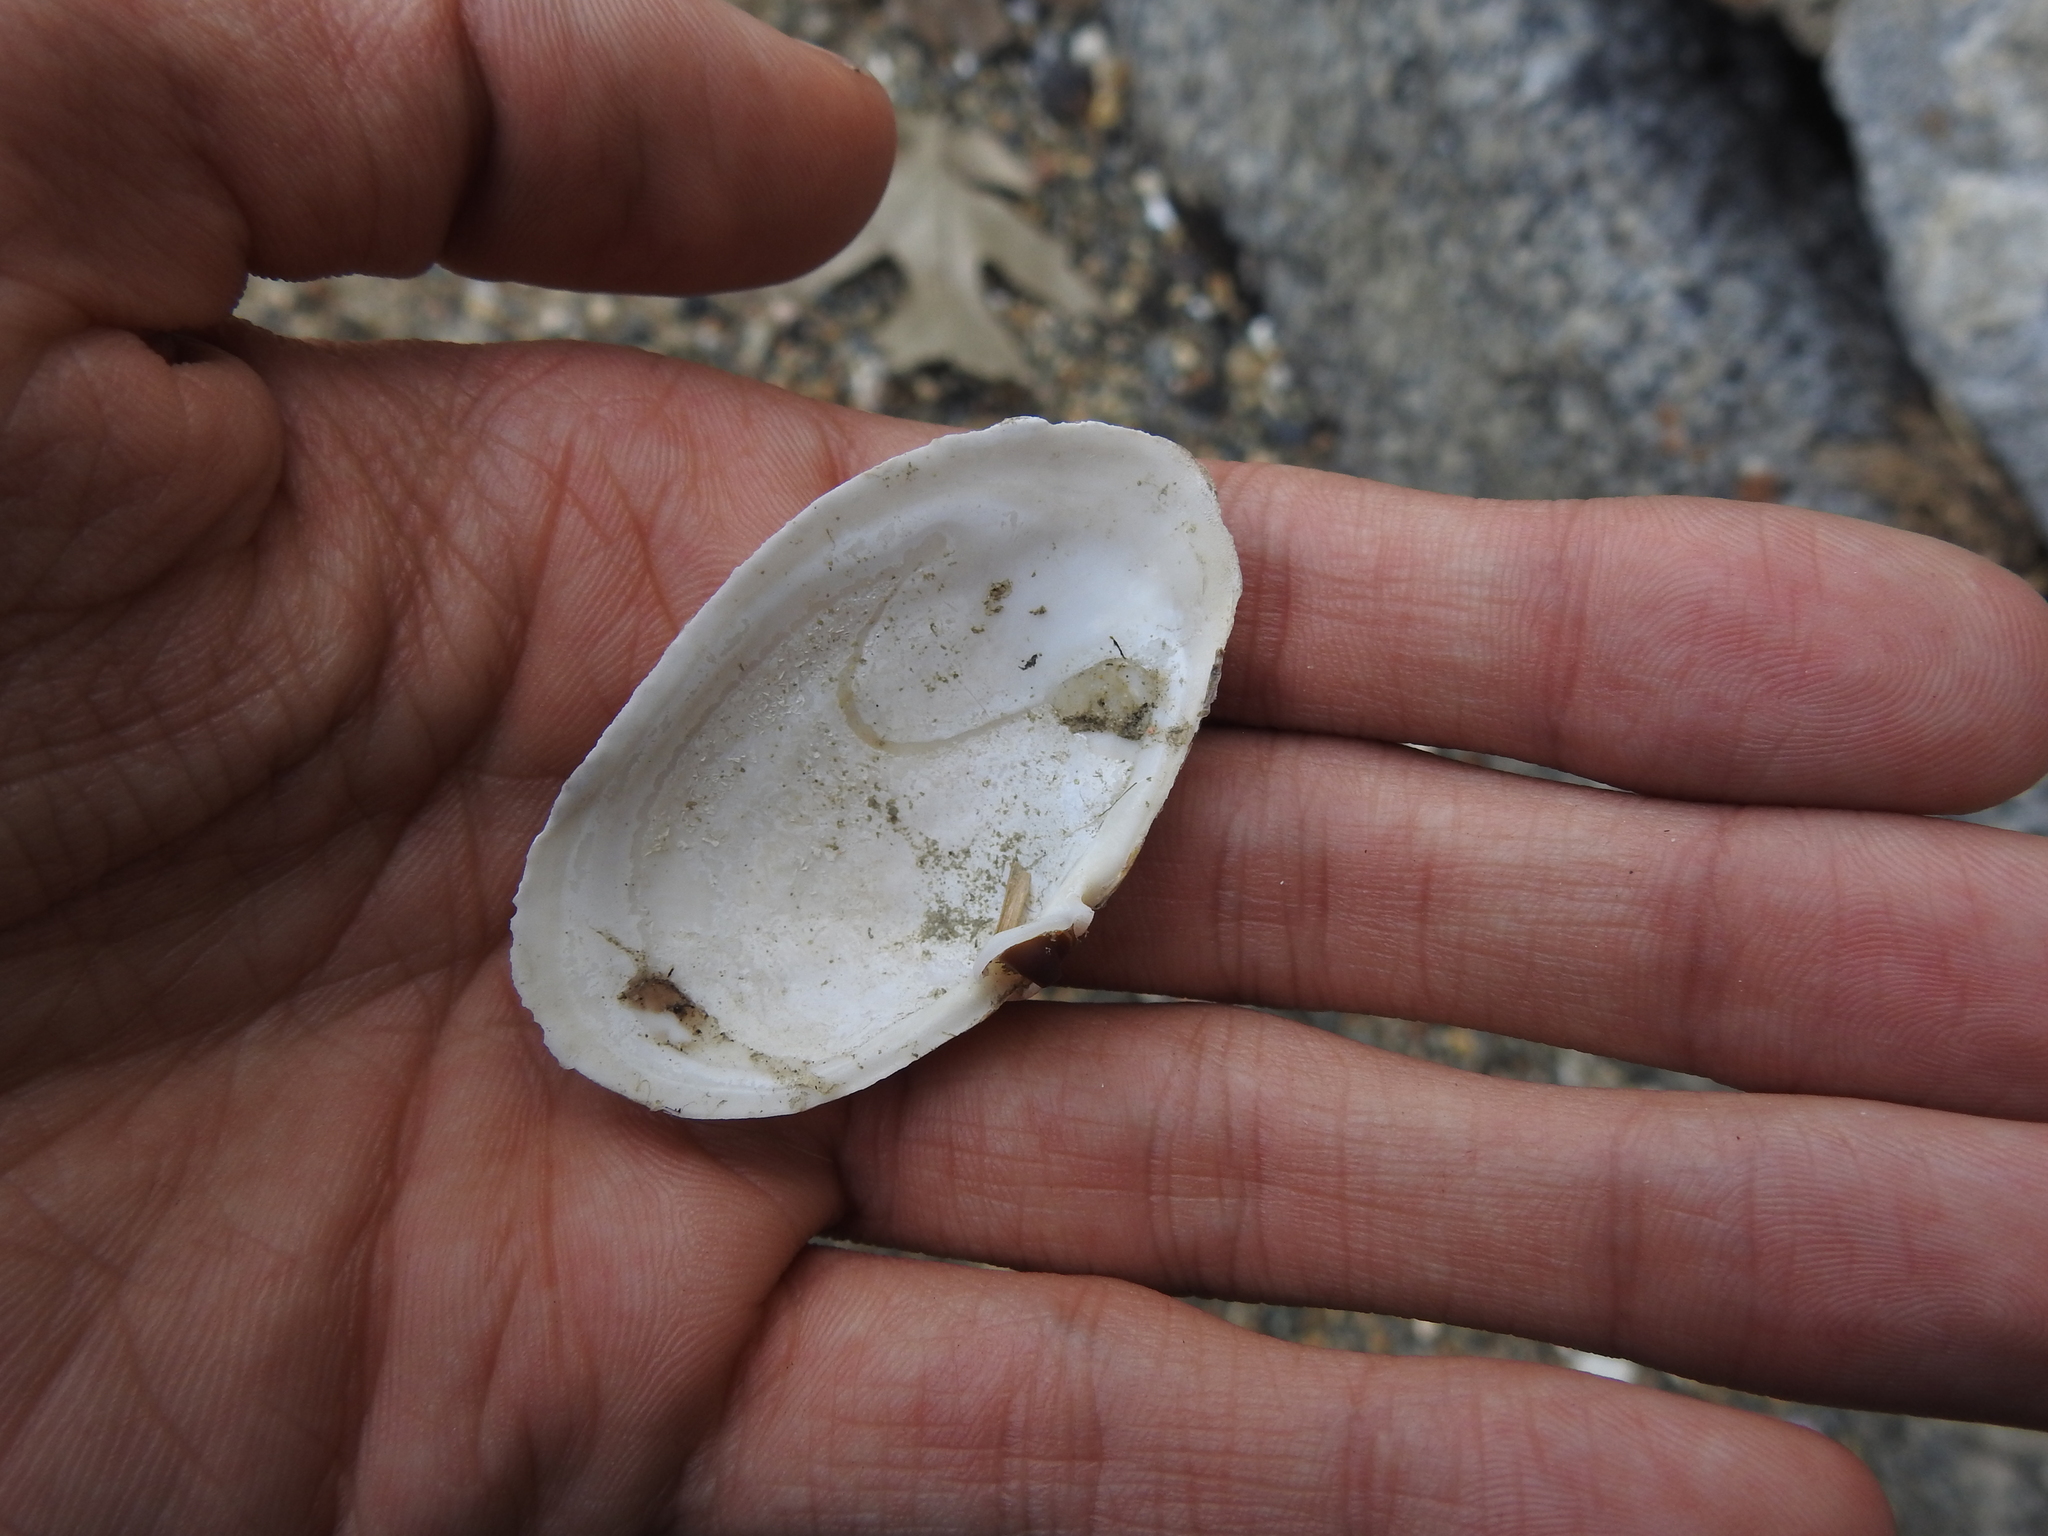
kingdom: Animalia
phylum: Mollusca
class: Bivalvia
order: Myida
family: Myidae
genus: Mya
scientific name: Mya arenaria
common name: Soft-shelled clam
